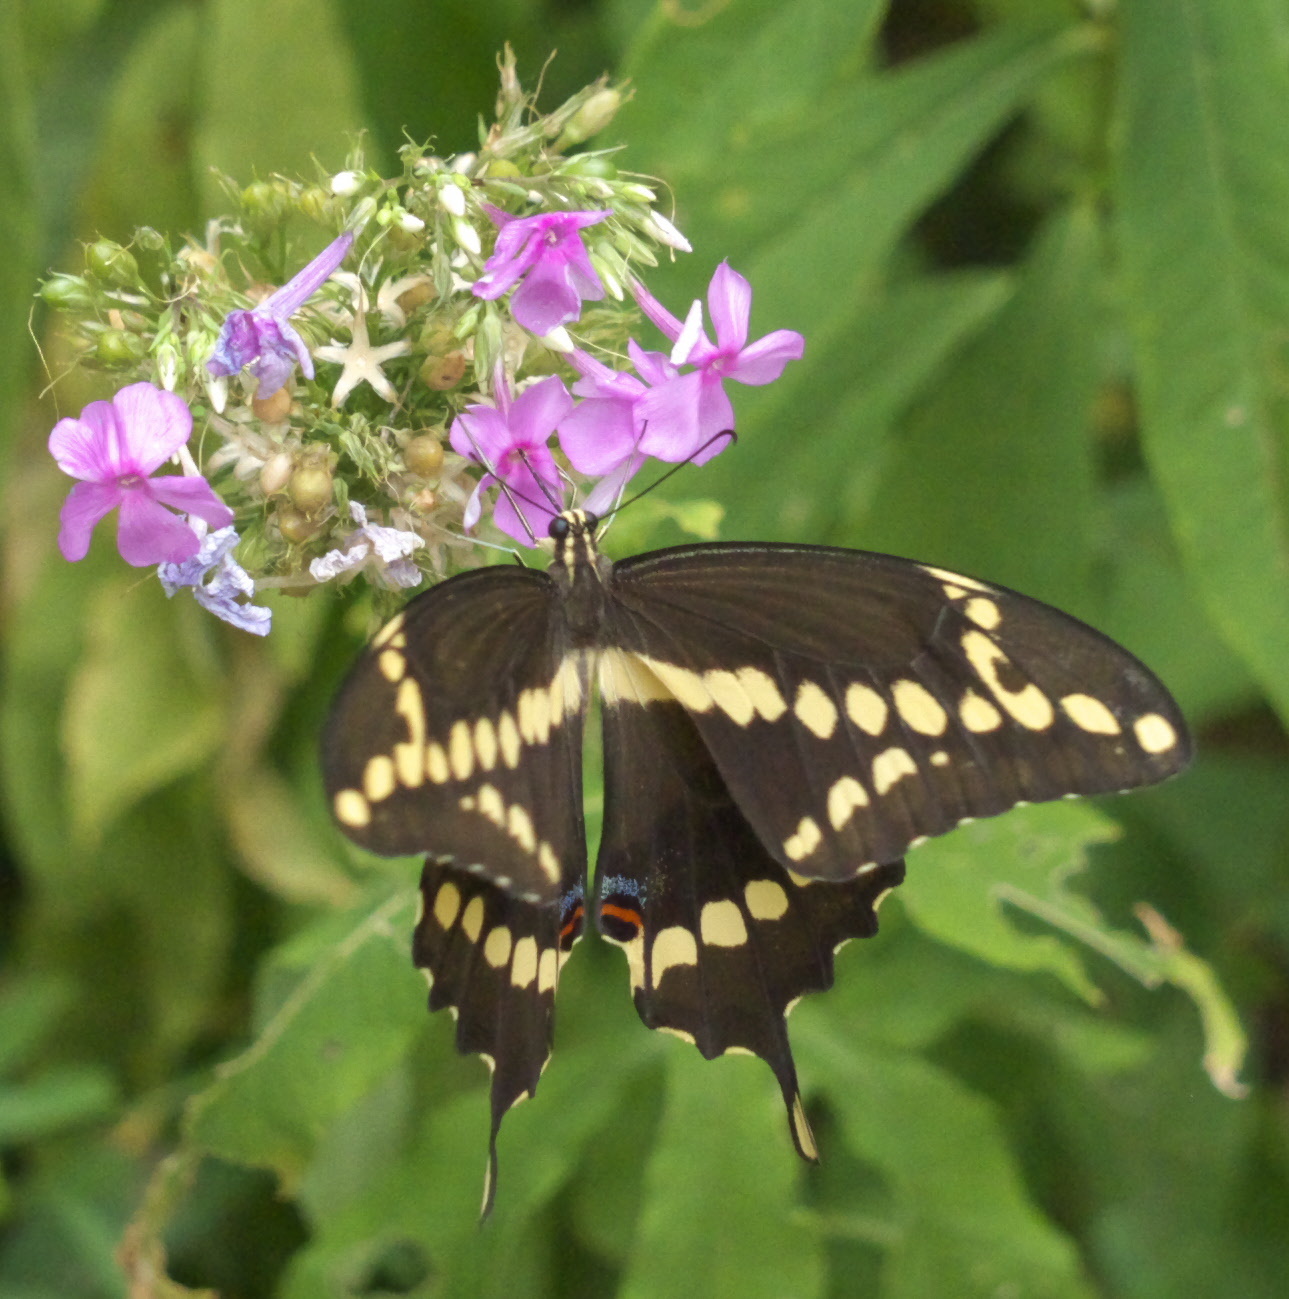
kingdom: Animalia
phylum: Arthropoda
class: Insecta
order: Lepidoptera
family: Papilionidae
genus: Papilio
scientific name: Papilio cresphontes
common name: Giant swallowtail
